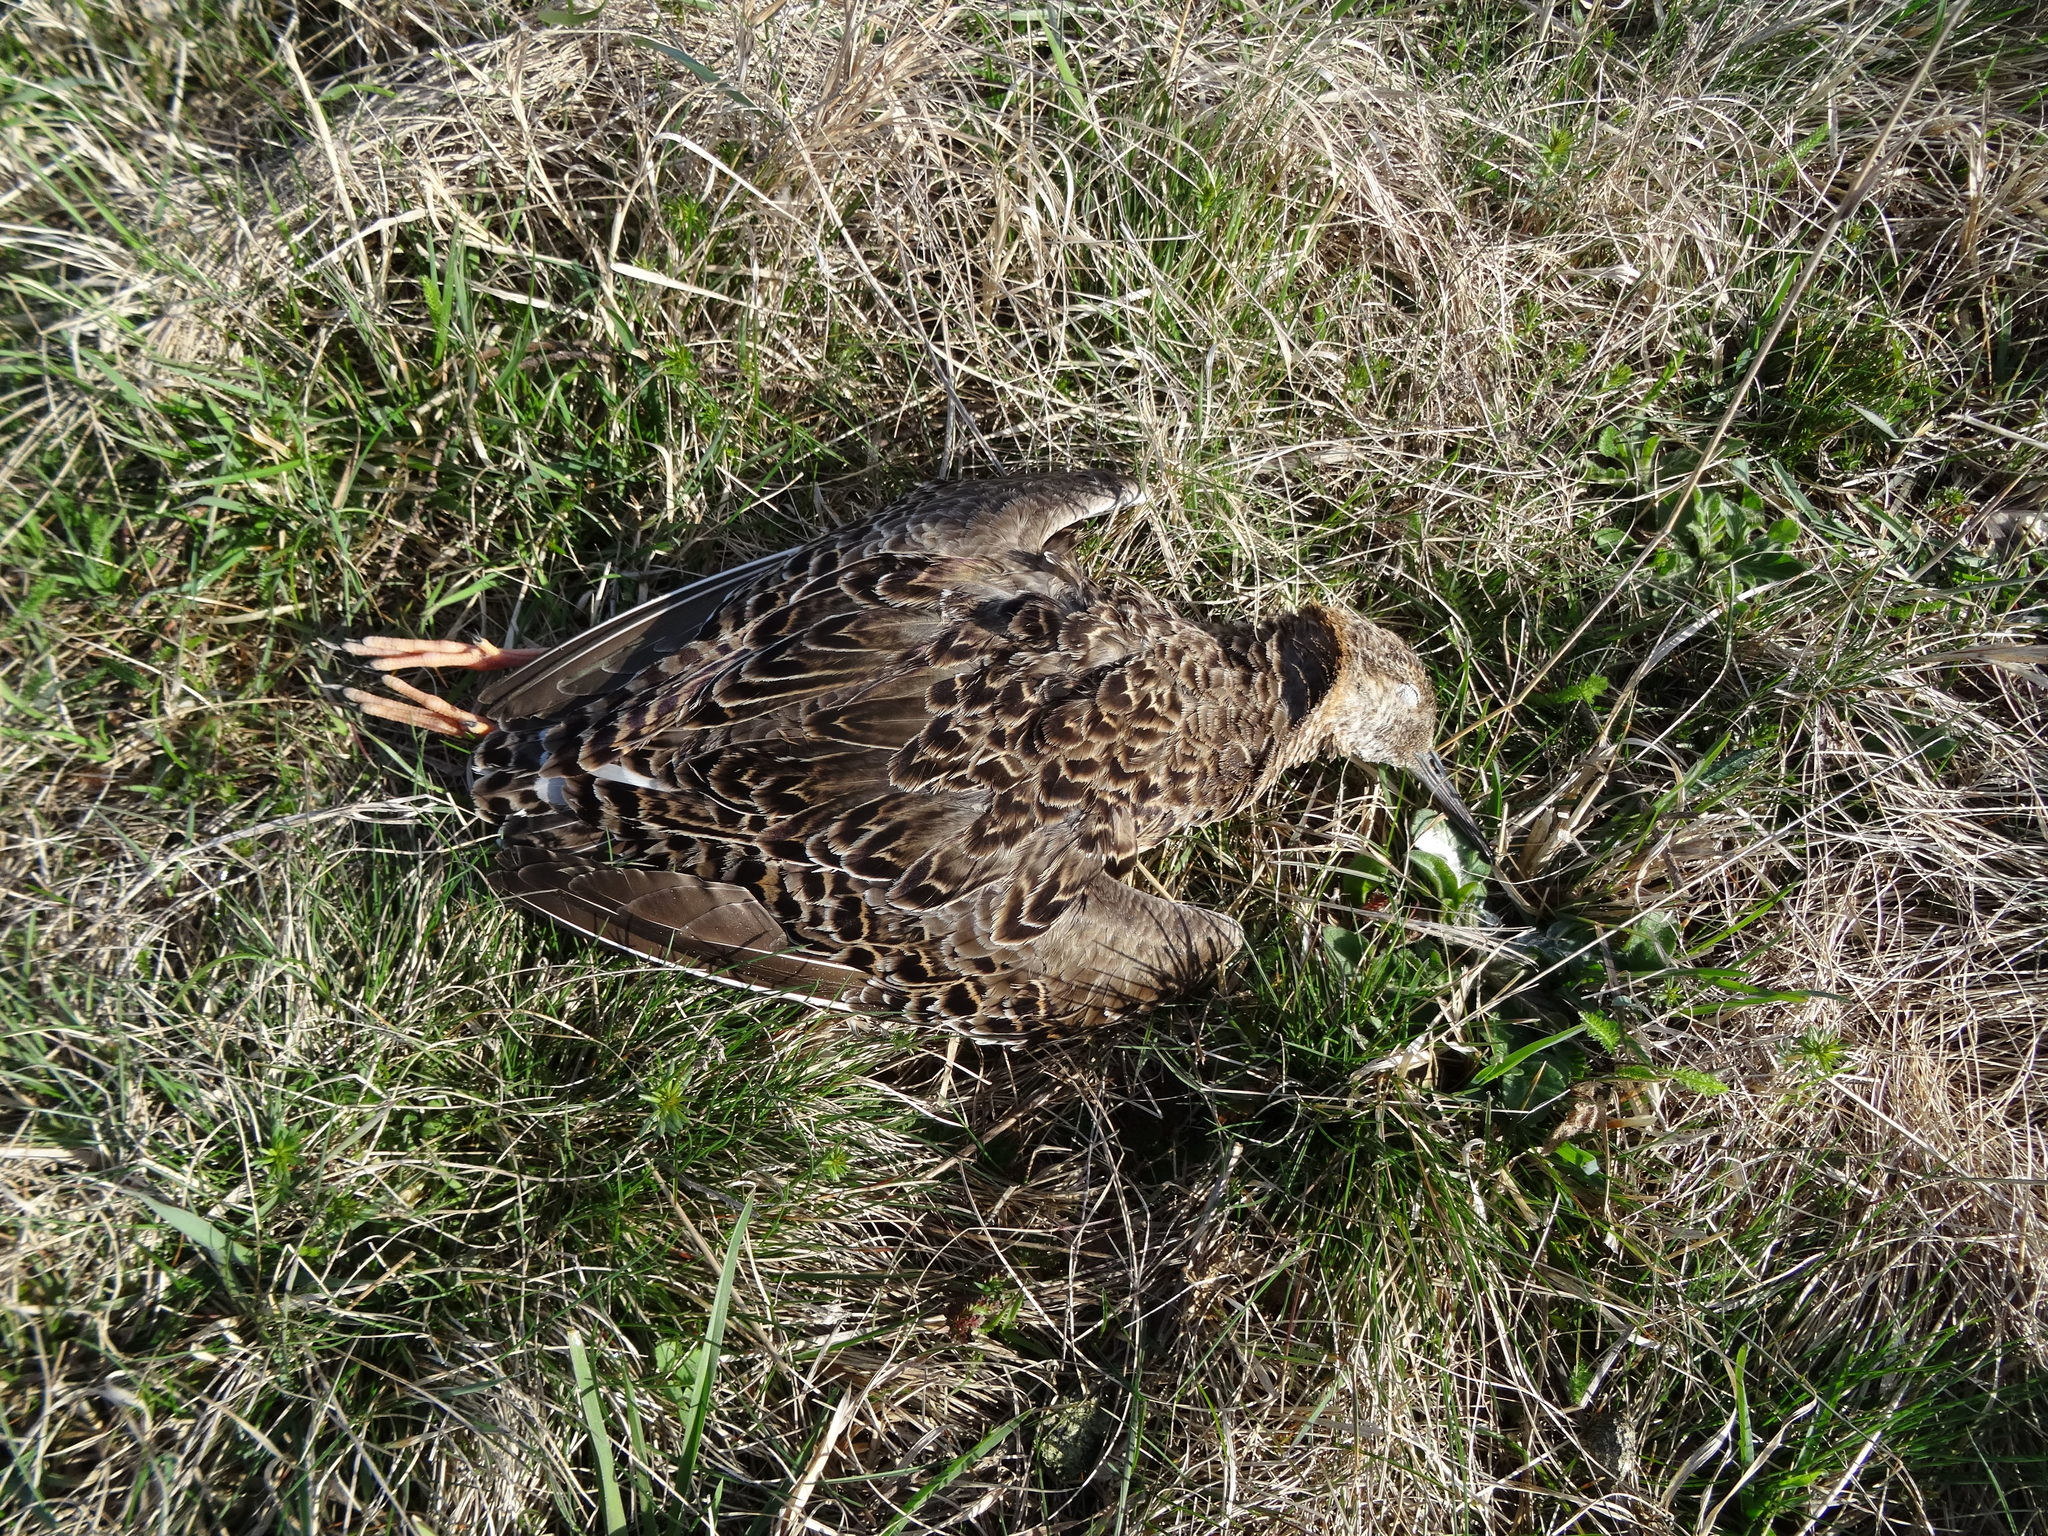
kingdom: Animalia
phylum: Chordata
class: Aves
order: Charadriiformes
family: Scolopacidae
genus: Calidris
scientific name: Calidris pugnax
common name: Ruff
